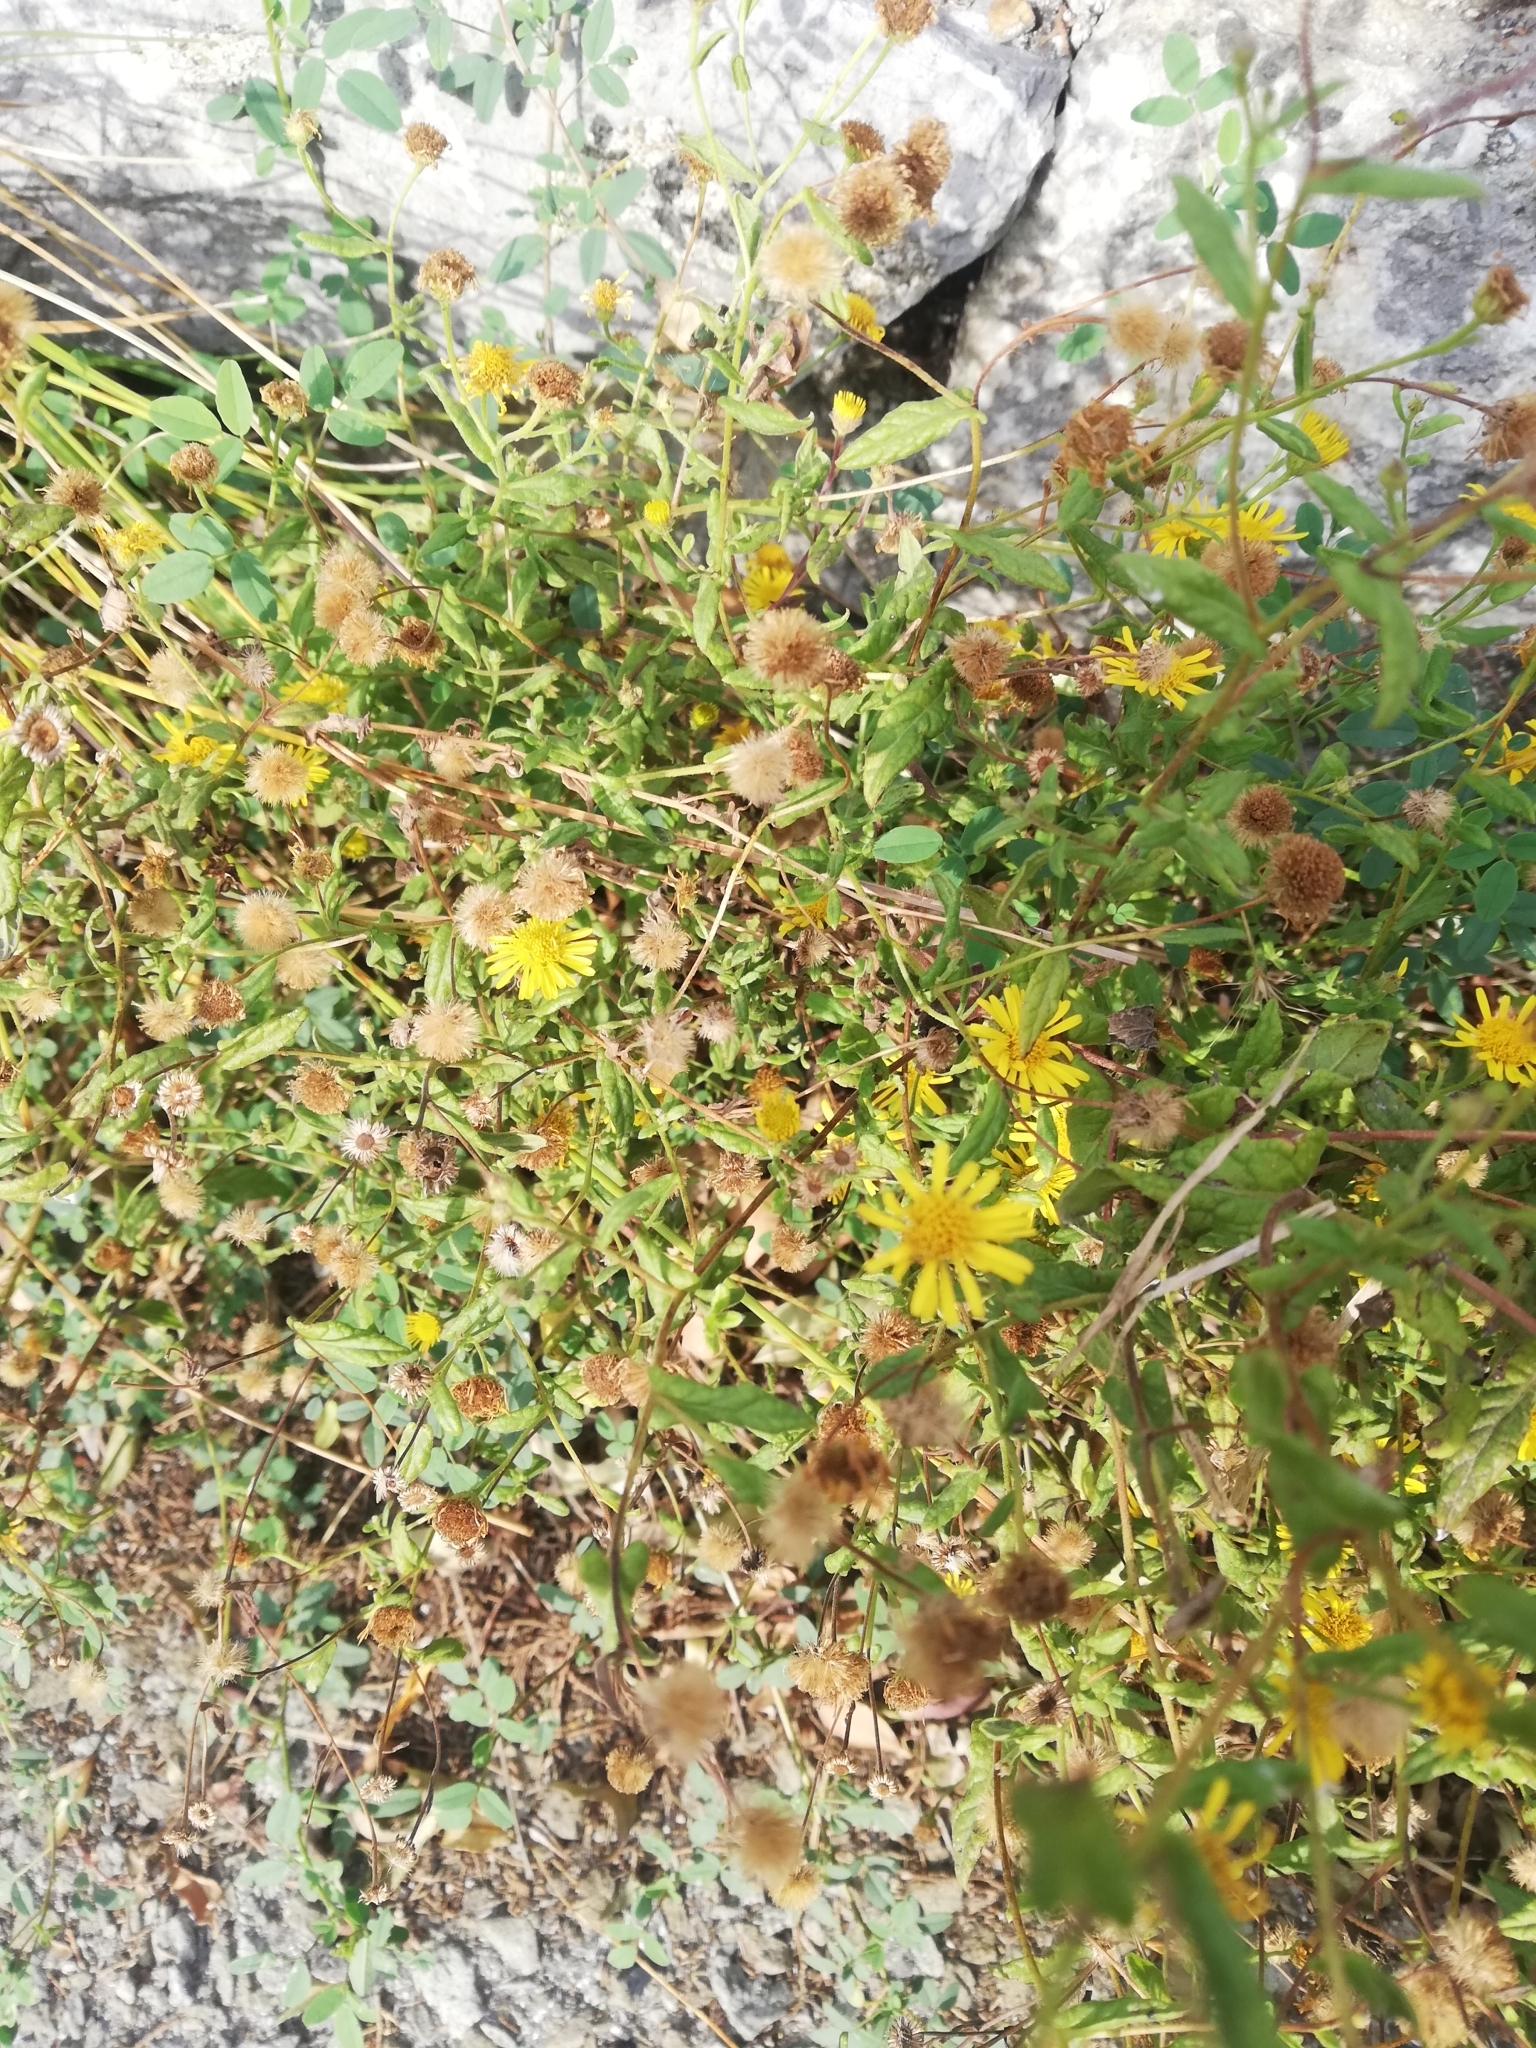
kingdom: Plantae
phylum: Tracheophyta
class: Magnoliopsida
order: Asterales
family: Asteraceae
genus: Pulicaria
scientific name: Pulicaria dysenterica
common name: Common fleabane
